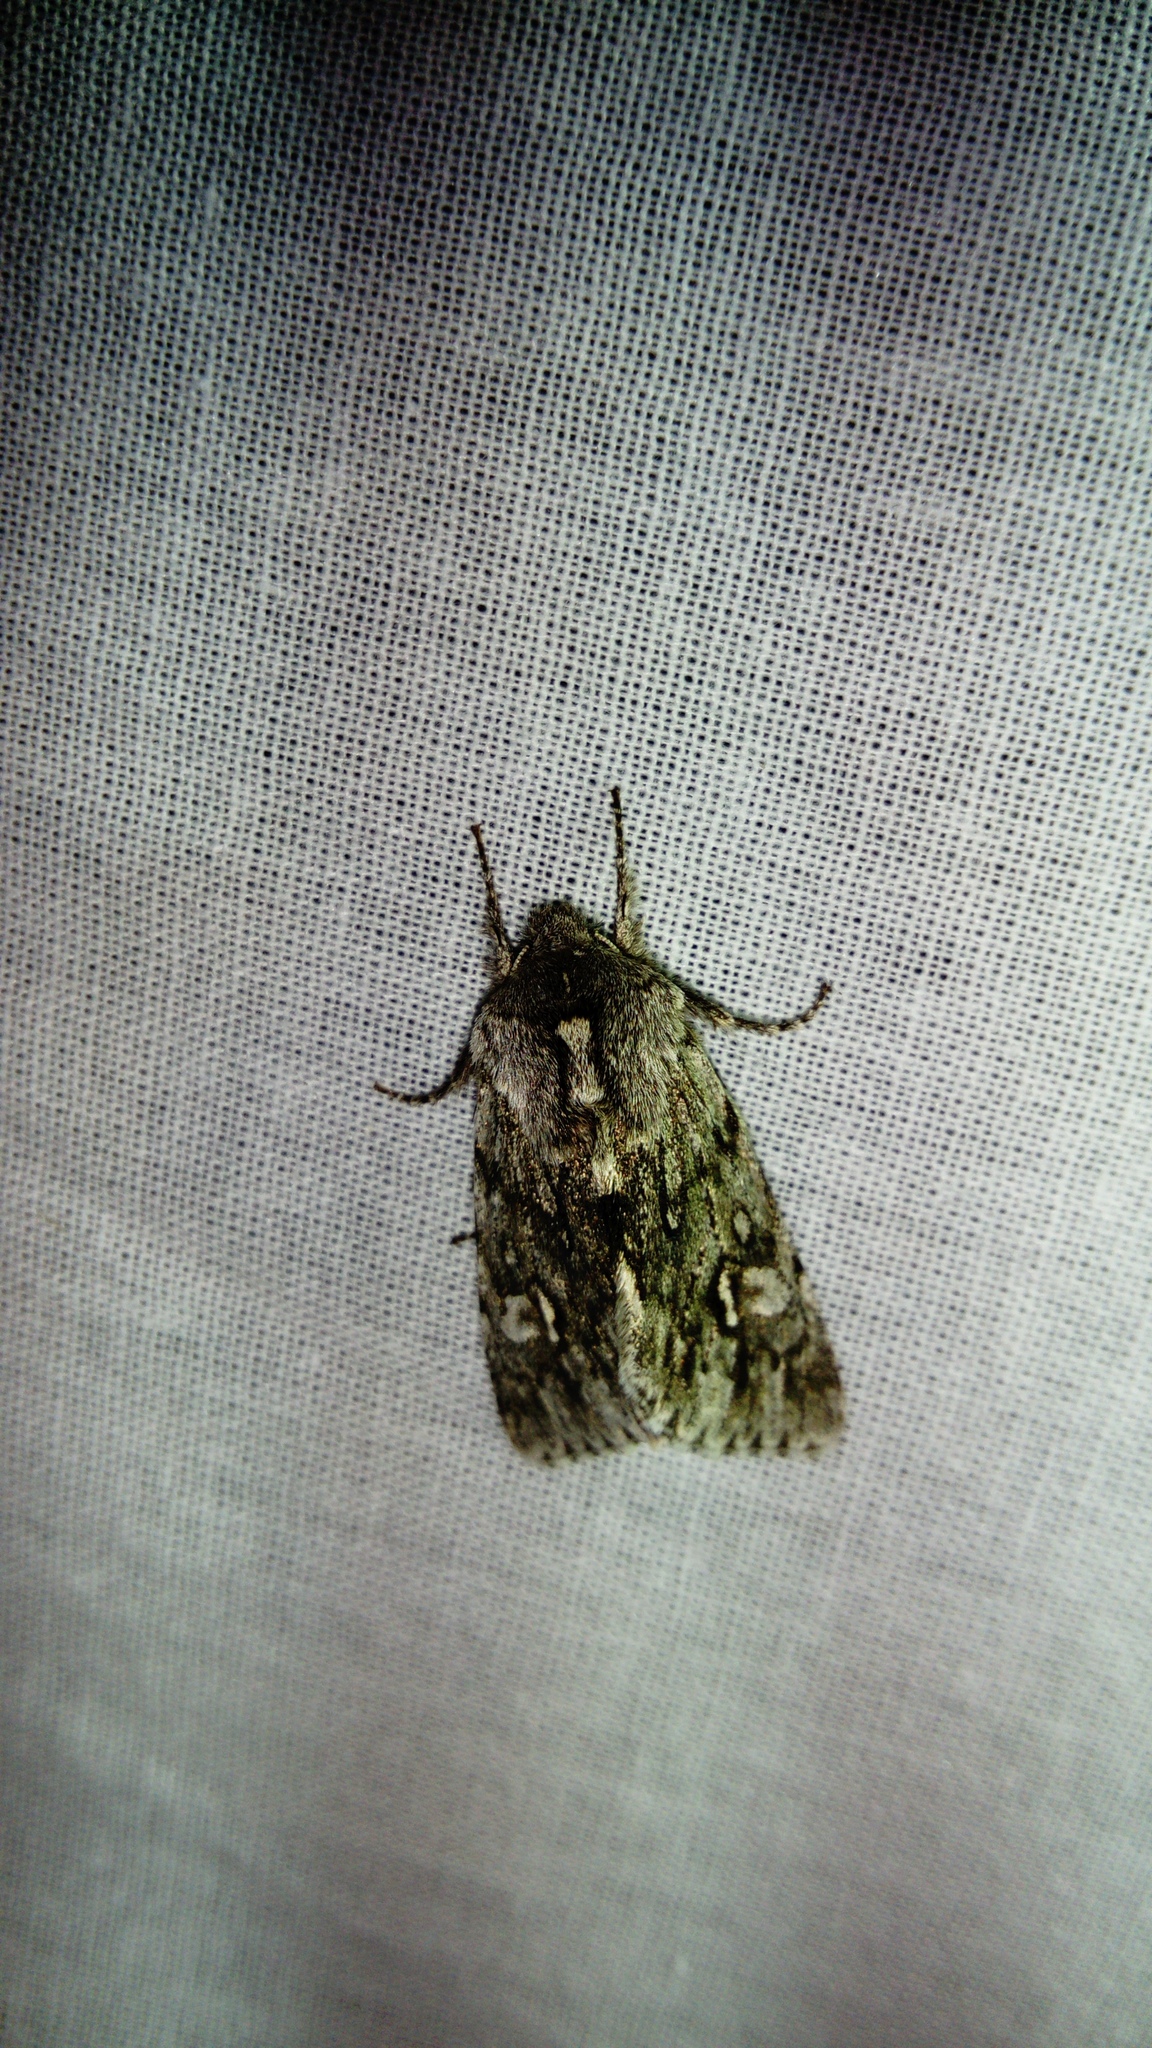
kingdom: Animalia
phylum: Arthropoda
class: Insecta
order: Lepidoptera
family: Noctuidae
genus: Brachionycha
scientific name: Brachionycha nubeculosa
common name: Rannoch sprawler
